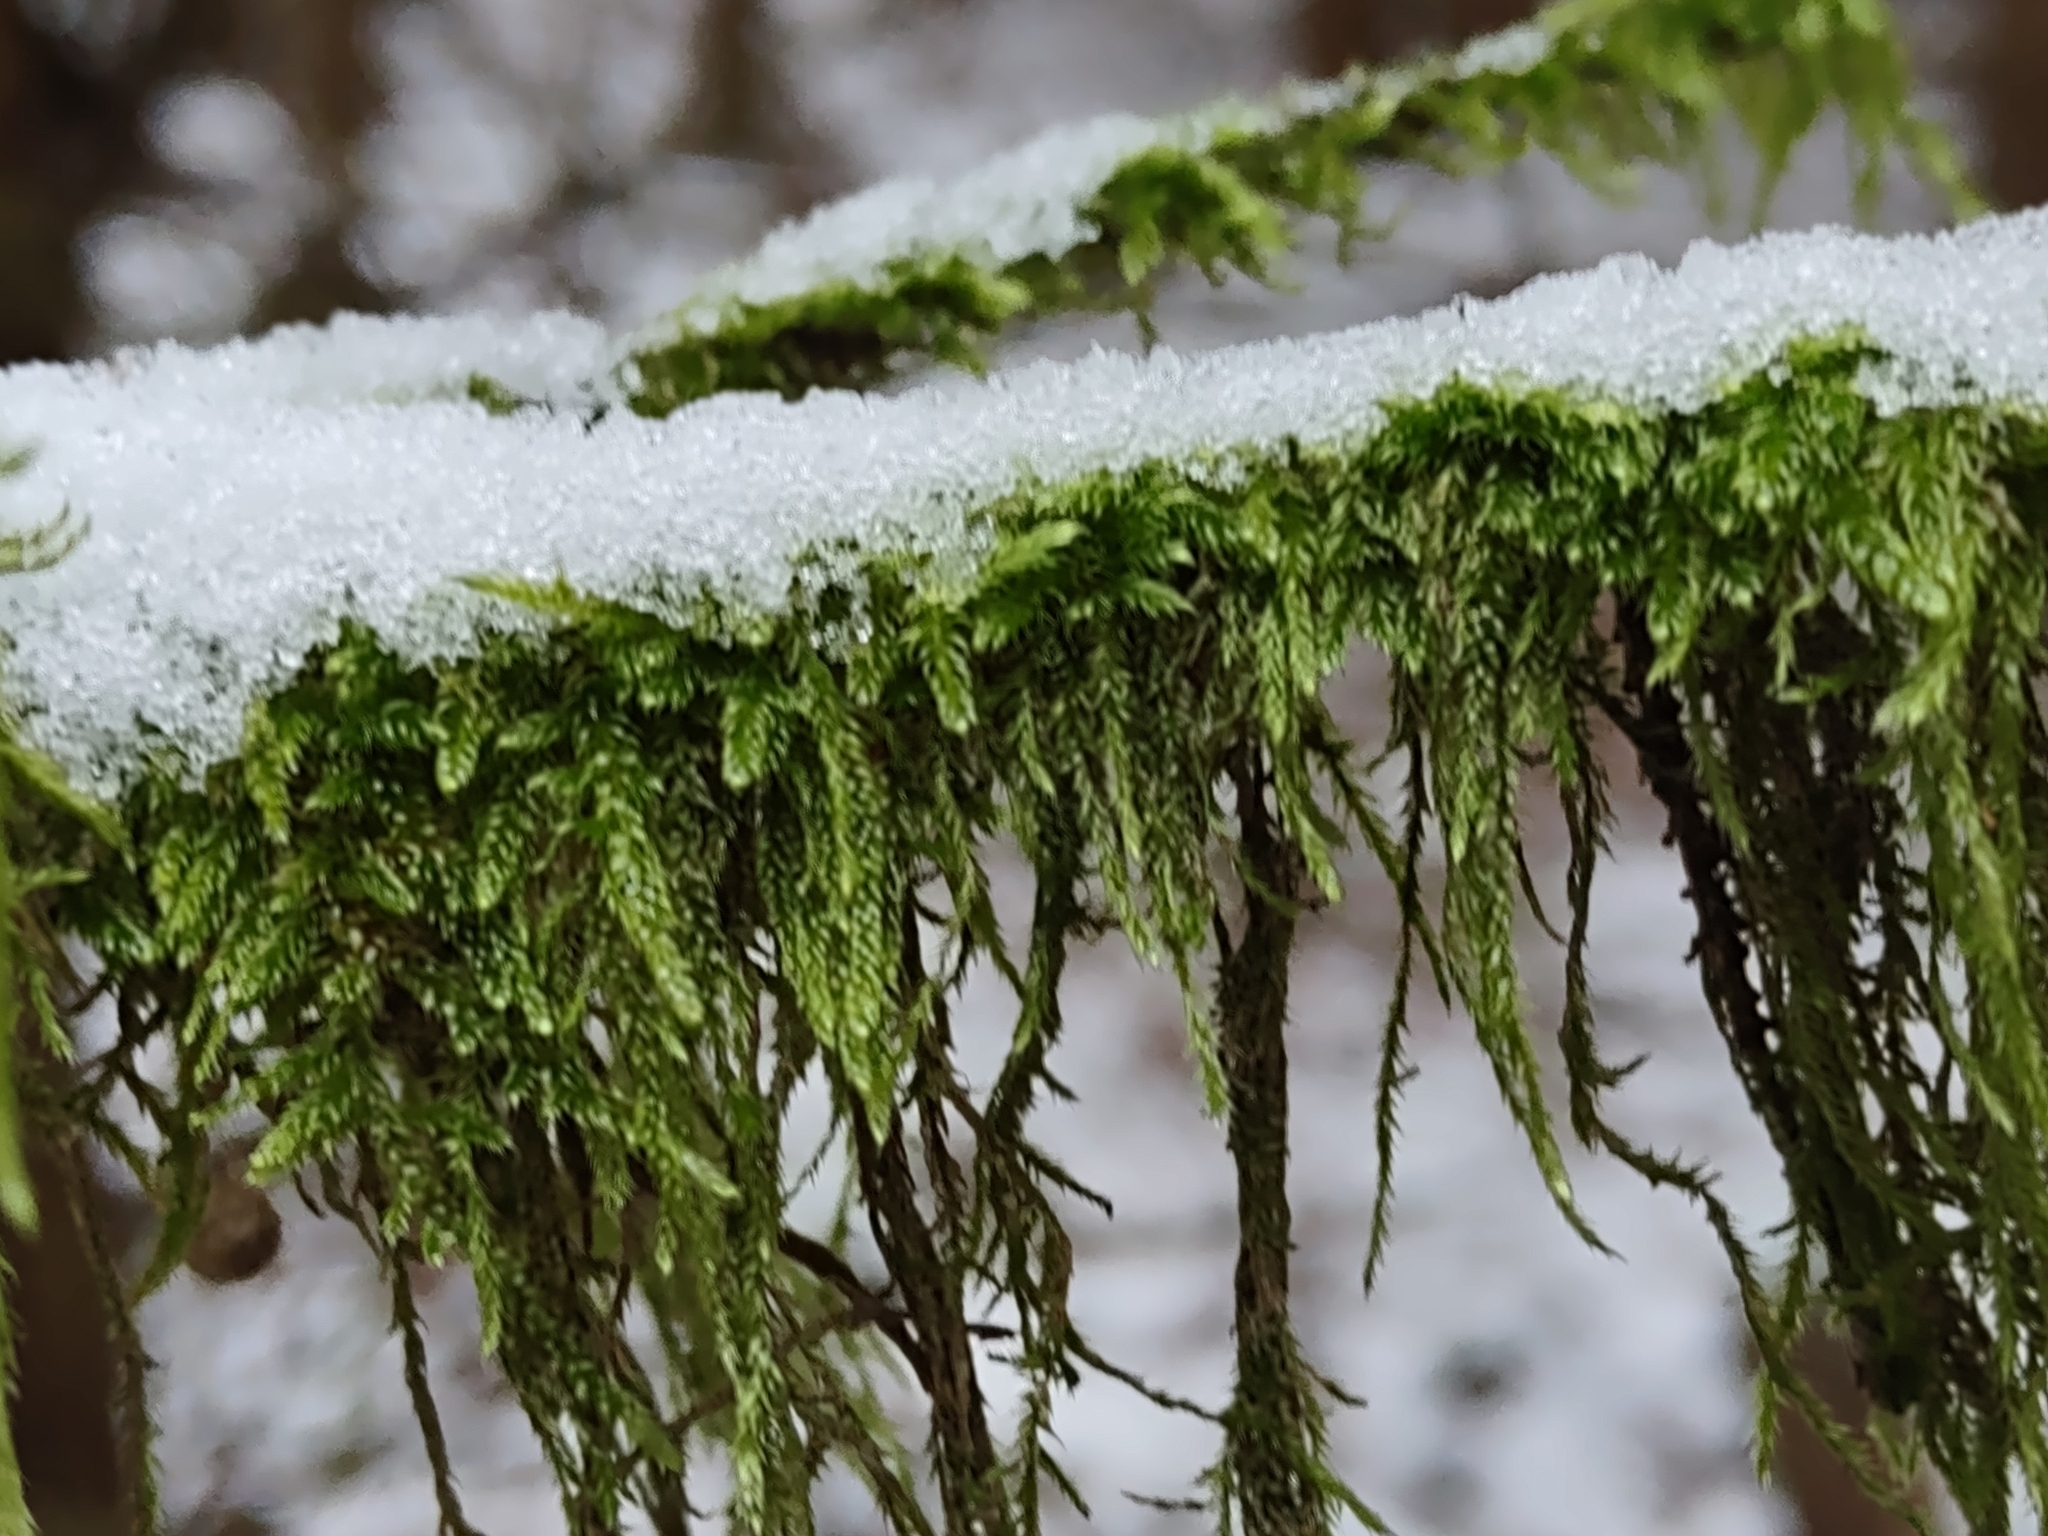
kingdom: Plantae
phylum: Bryophyta
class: Bryopsida
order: Hypnales
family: Hypnaceae
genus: Hypnum
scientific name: Hypnum cupressiforme
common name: Cypress-leaved plait-moss
